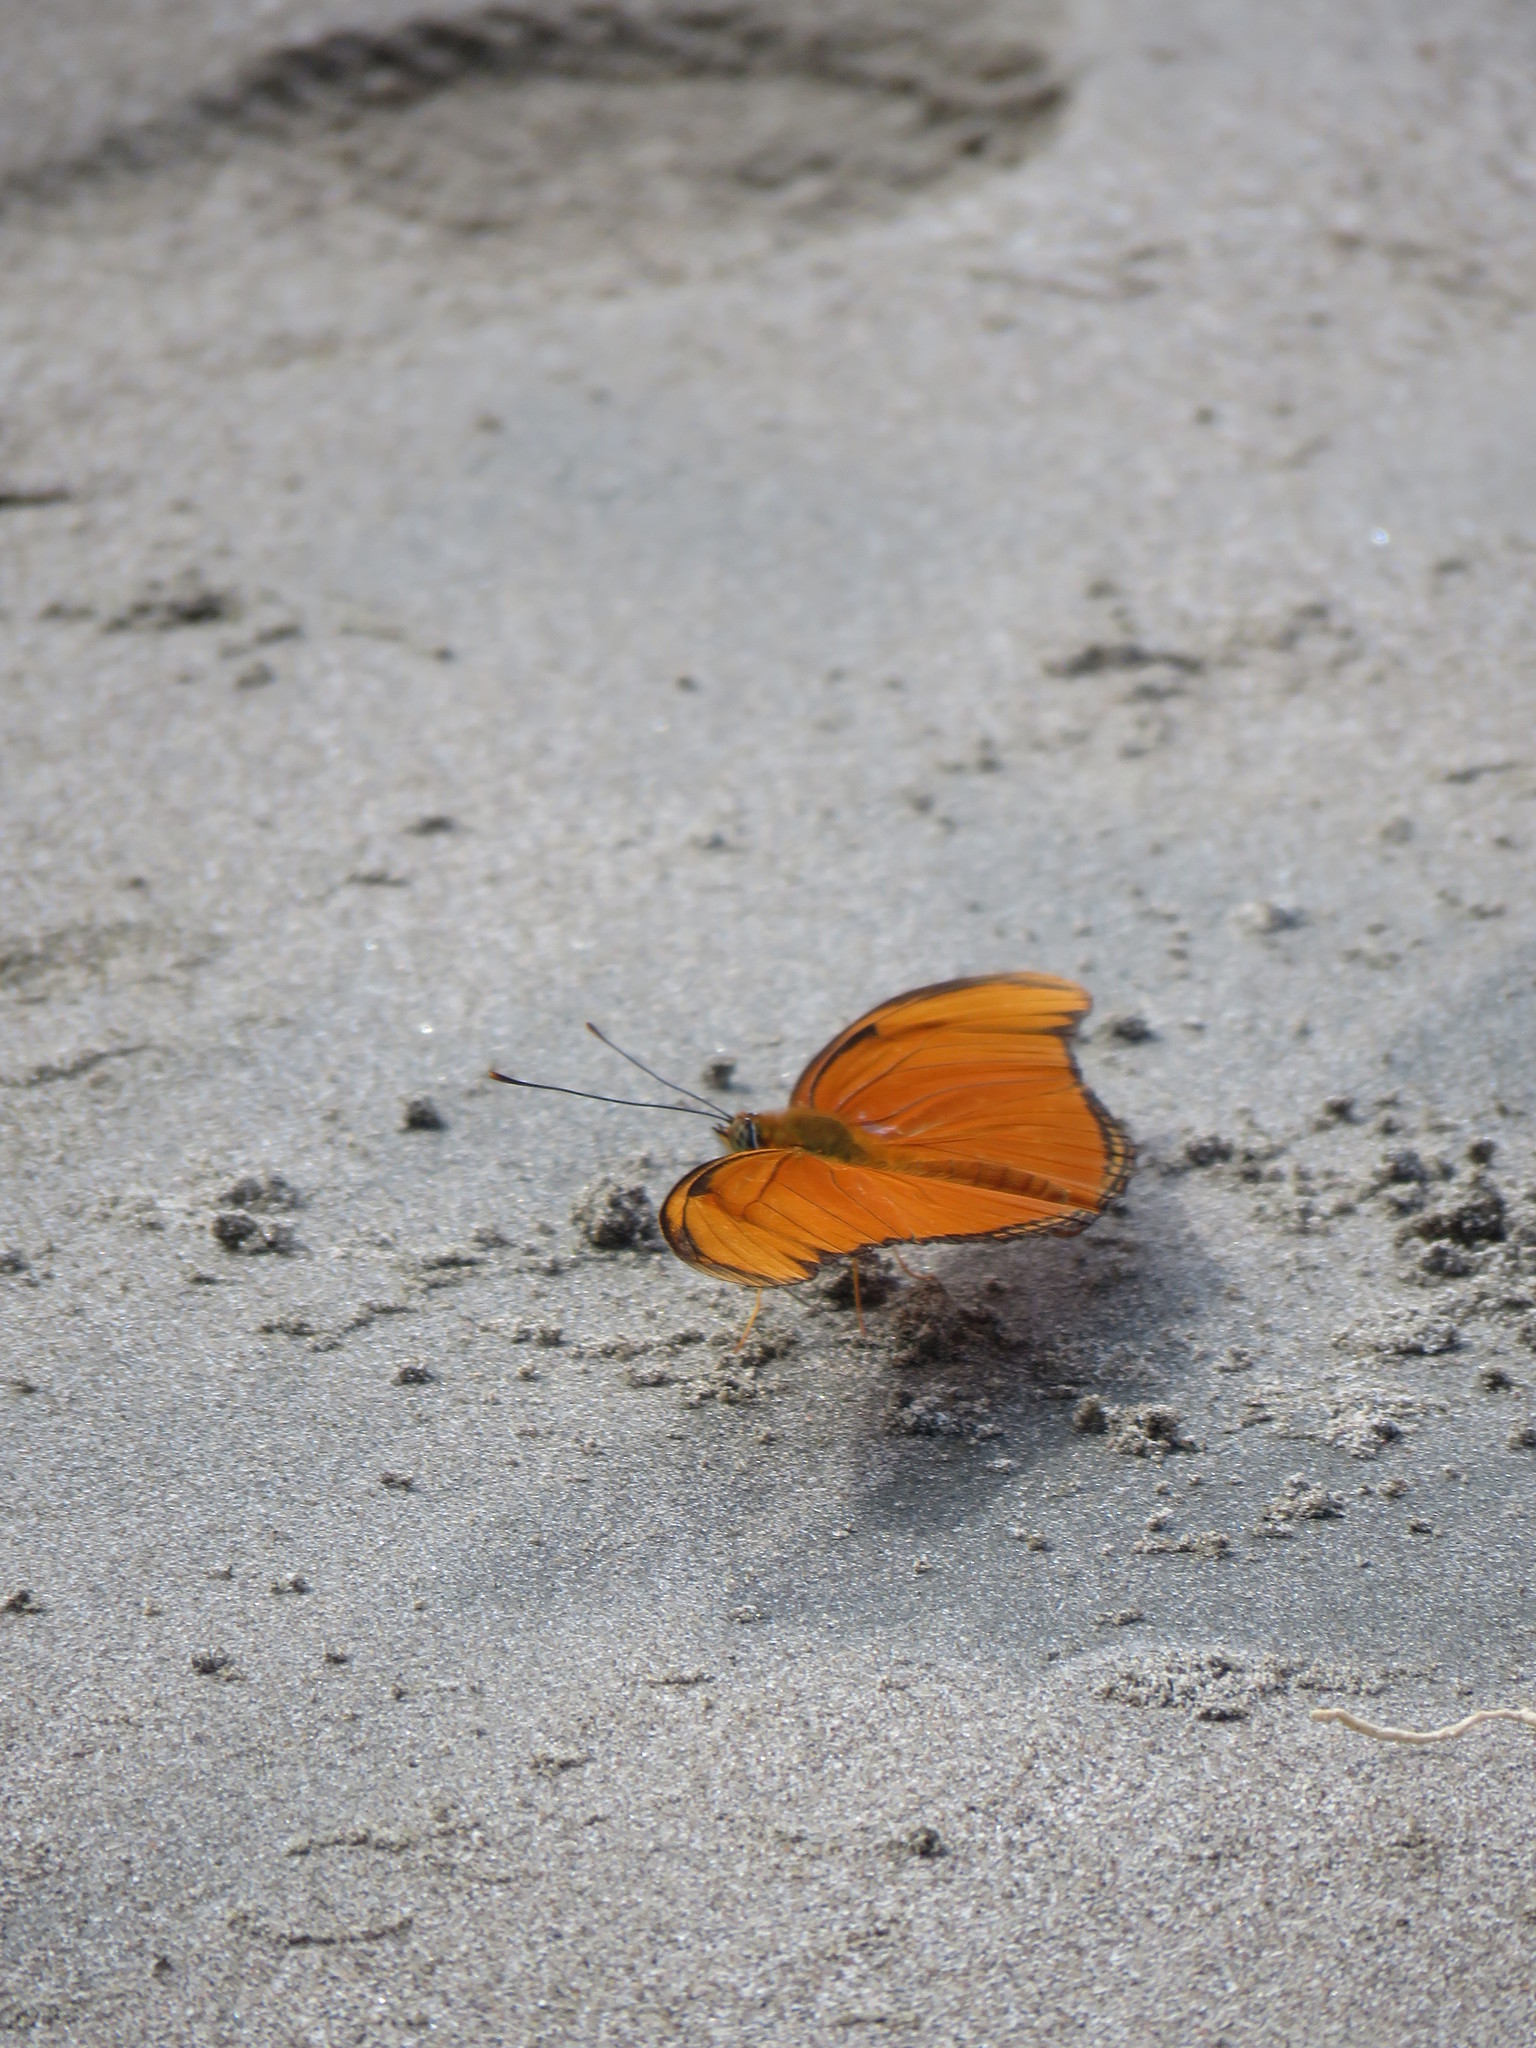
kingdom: Animalia
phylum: Arthropoda
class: Insecta
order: Lepidoptera
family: Nymphalidae
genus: Dryas
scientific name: Dryas iulia
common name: Flambeau
